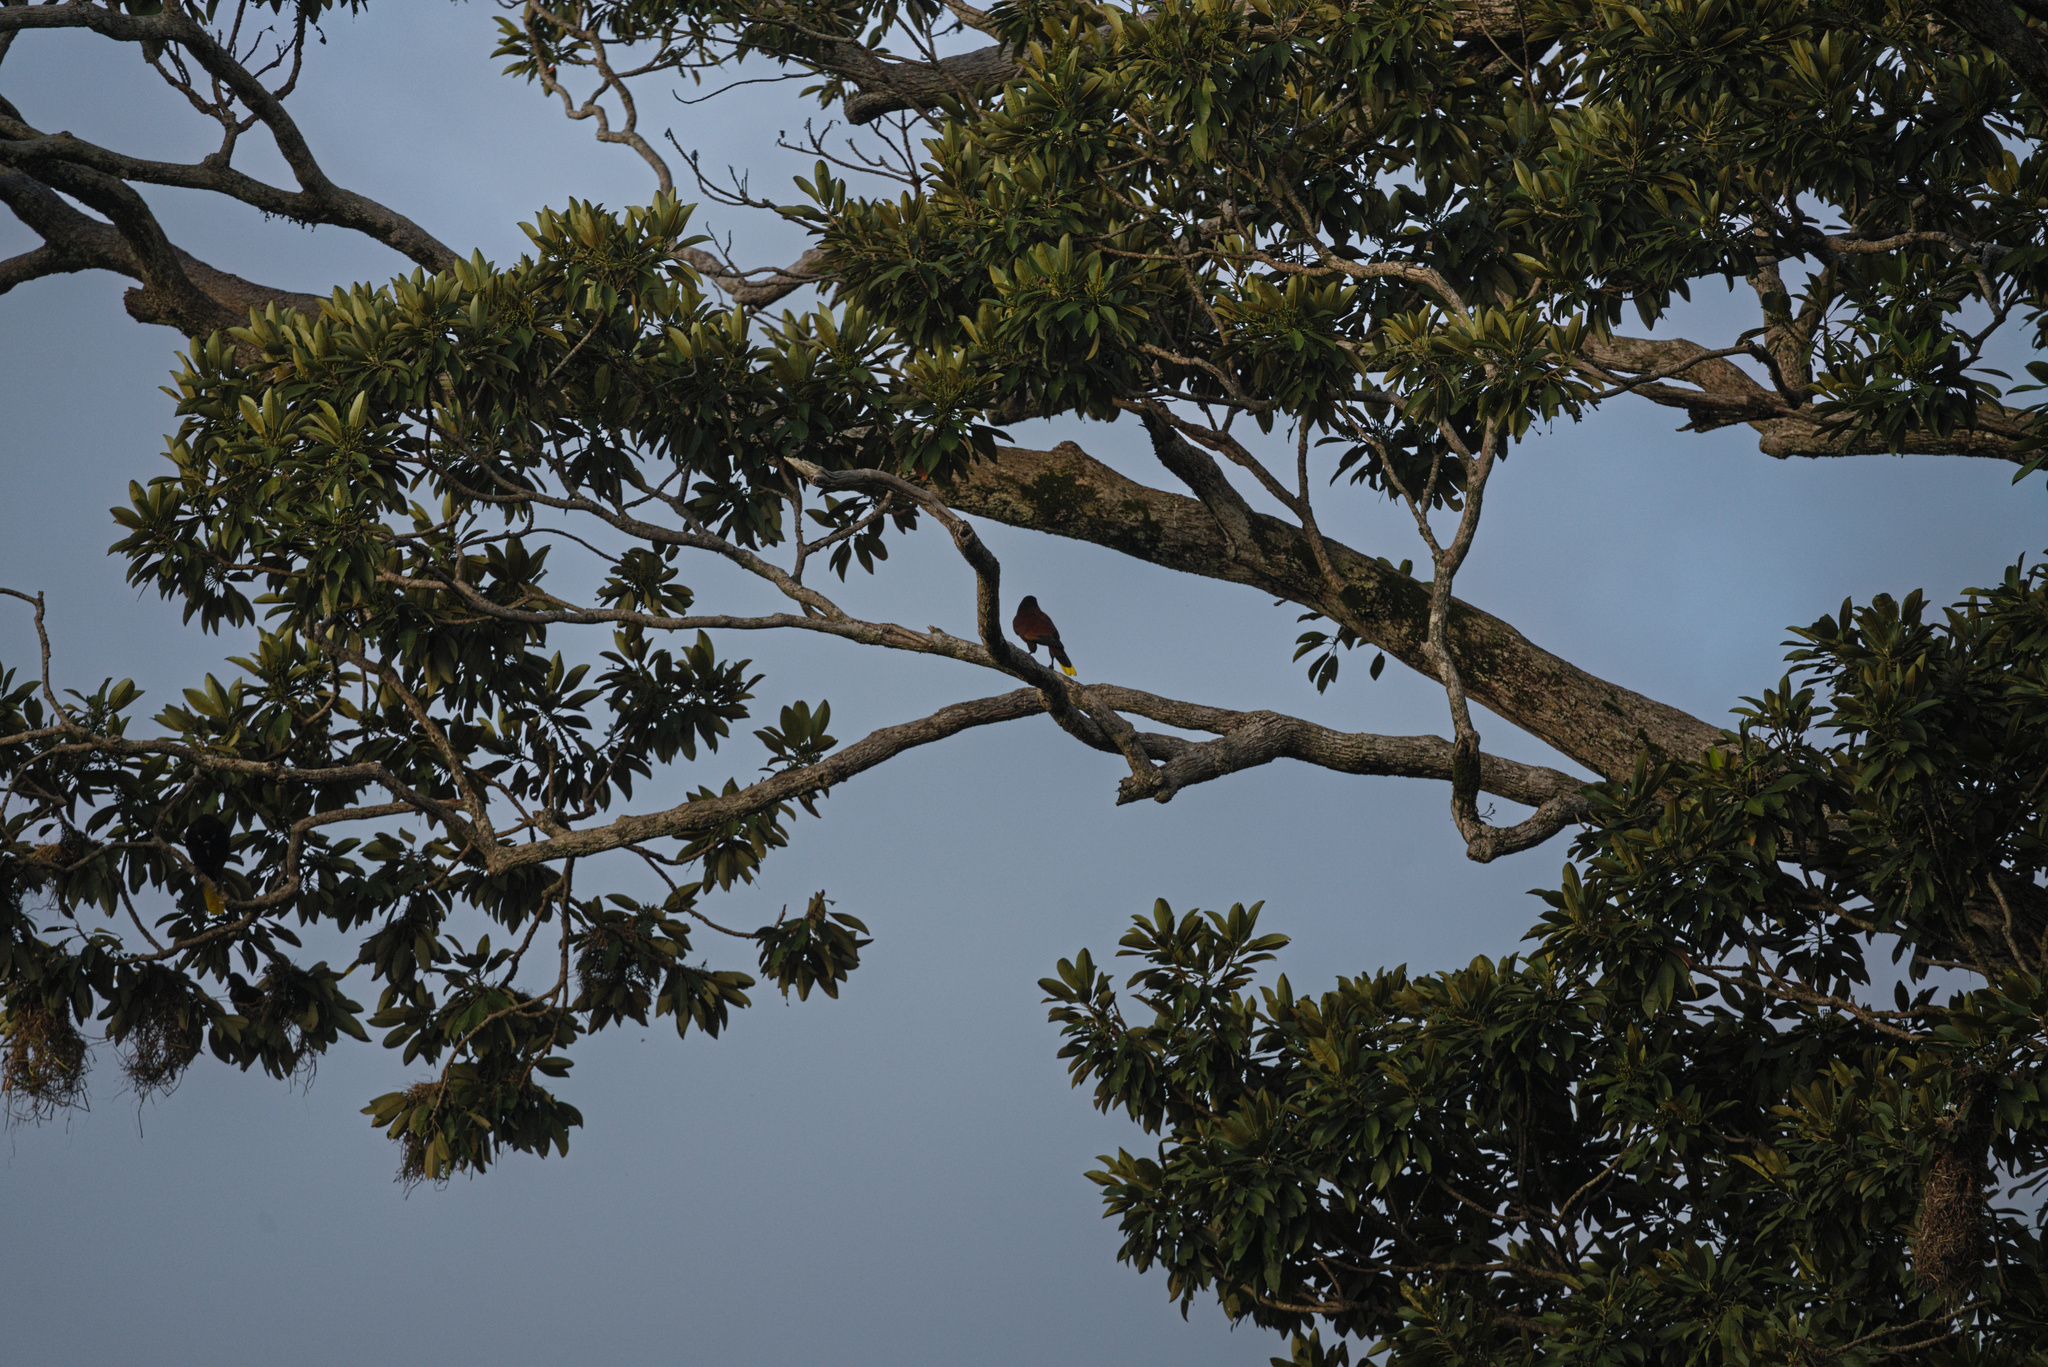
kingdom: Animalia
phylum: Chordata
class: Aves
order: Passeriformes
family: Icteridae
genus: Psarocolius
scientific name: Psarocolius montezuma
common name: Montezuma oropendola
